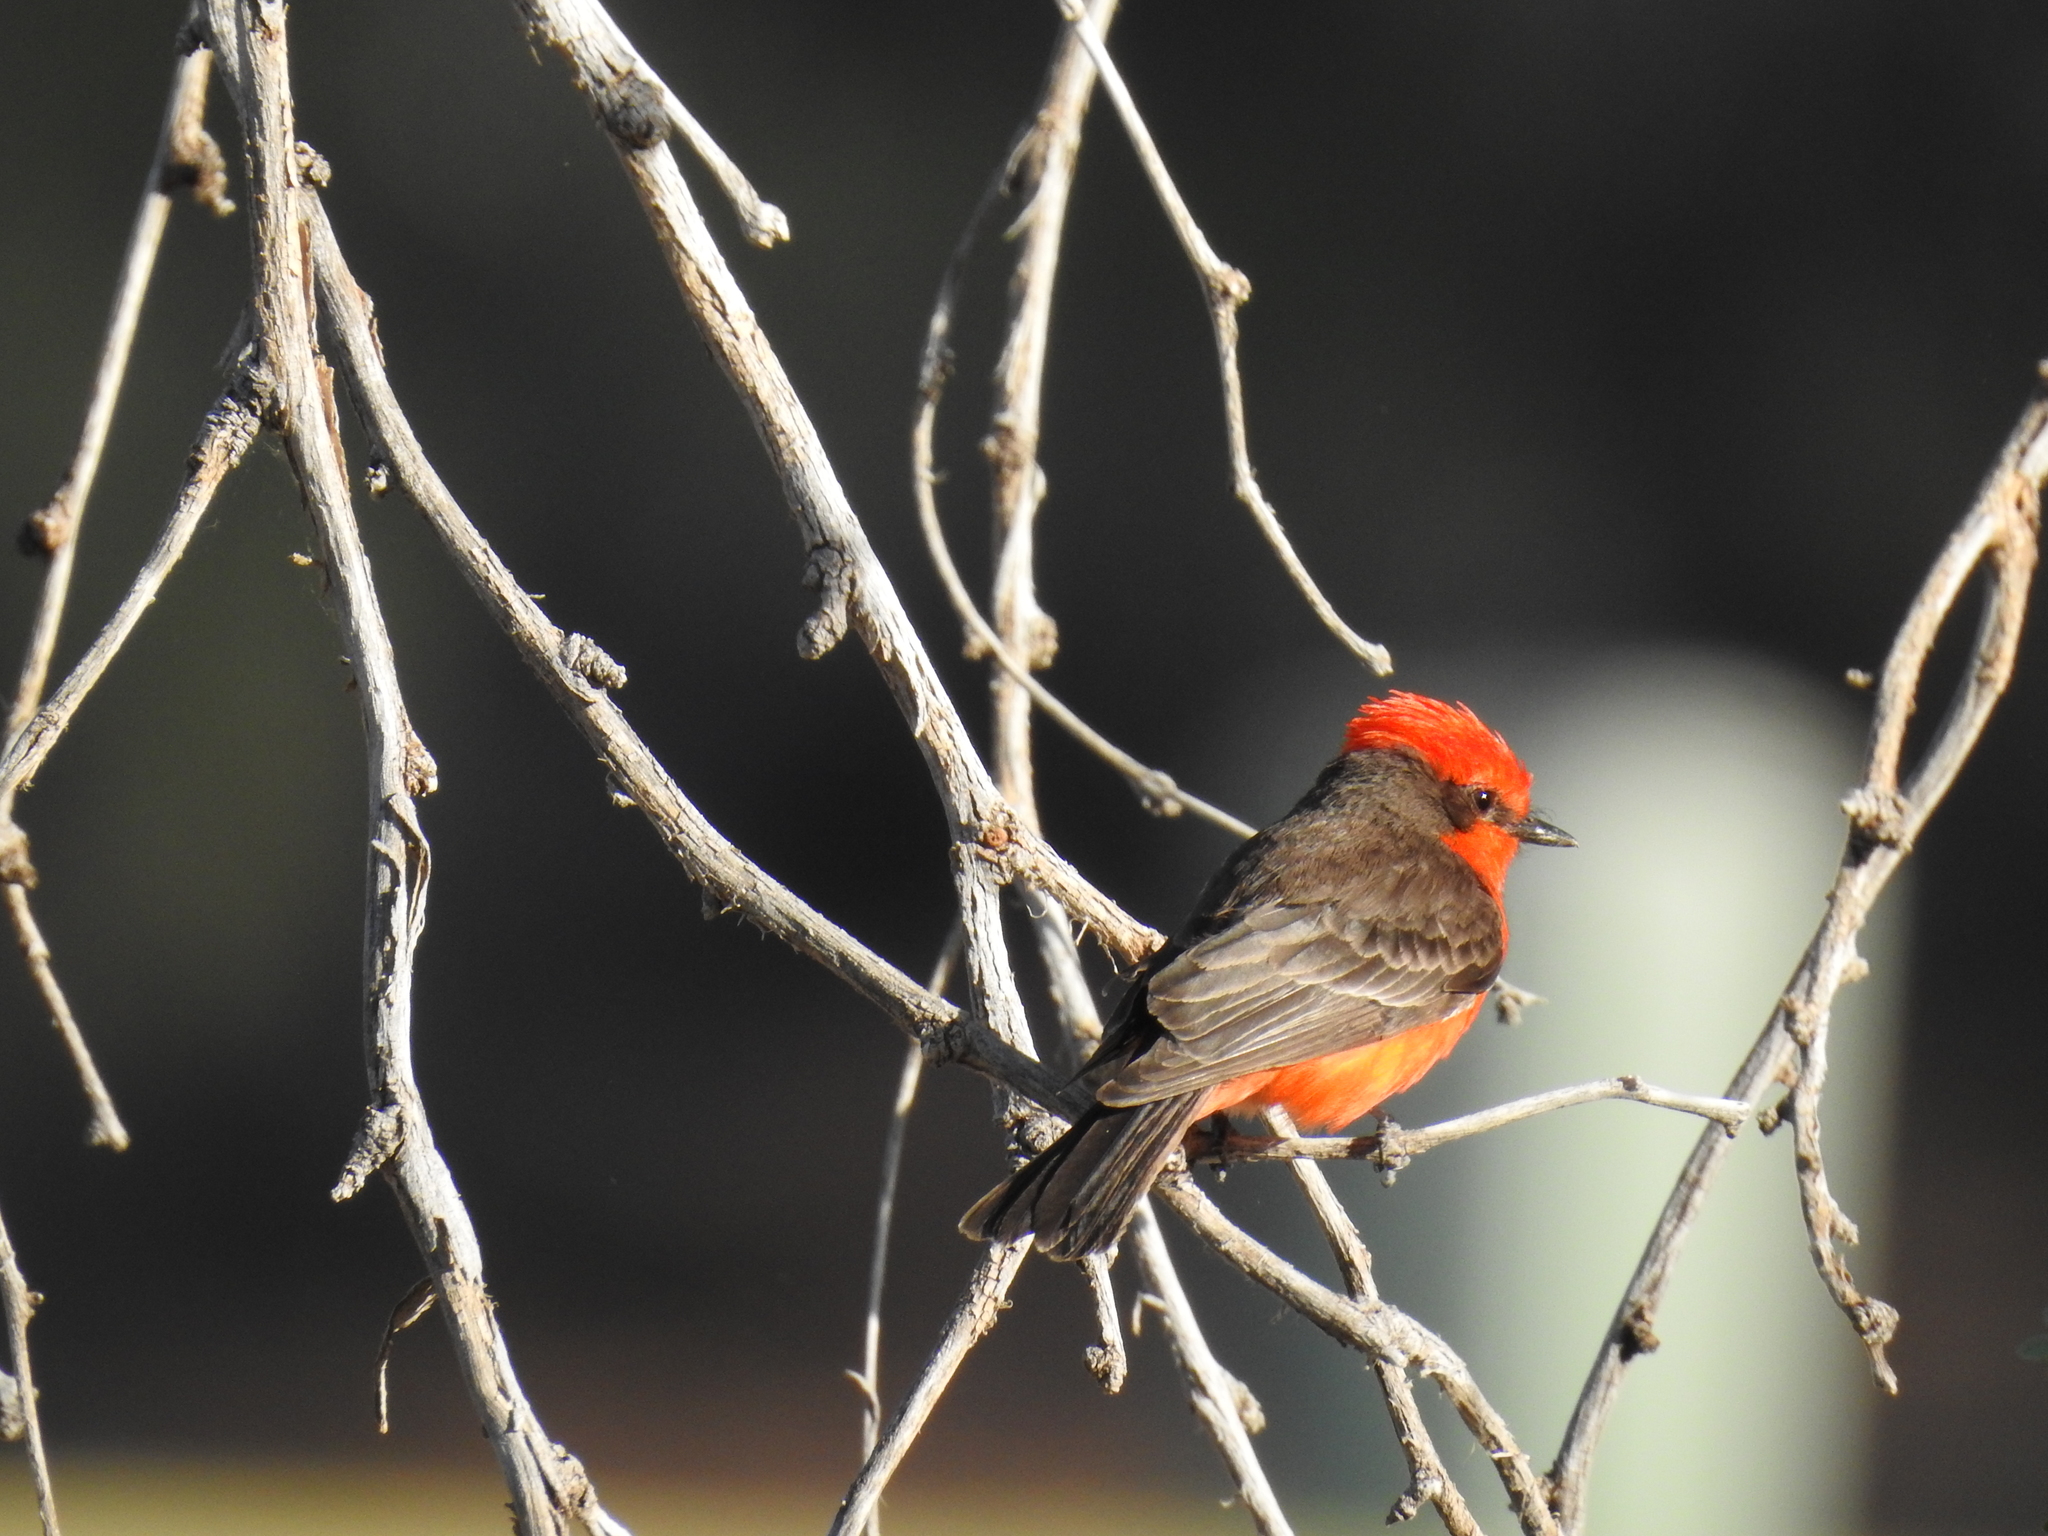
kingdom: Animalia
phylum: Chordata
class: Aves
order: Passeriformes
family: Tyrannidae
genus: Pyrocephalus
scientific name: Pyrocephalus rubinus
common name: Vermilion flycatcher
